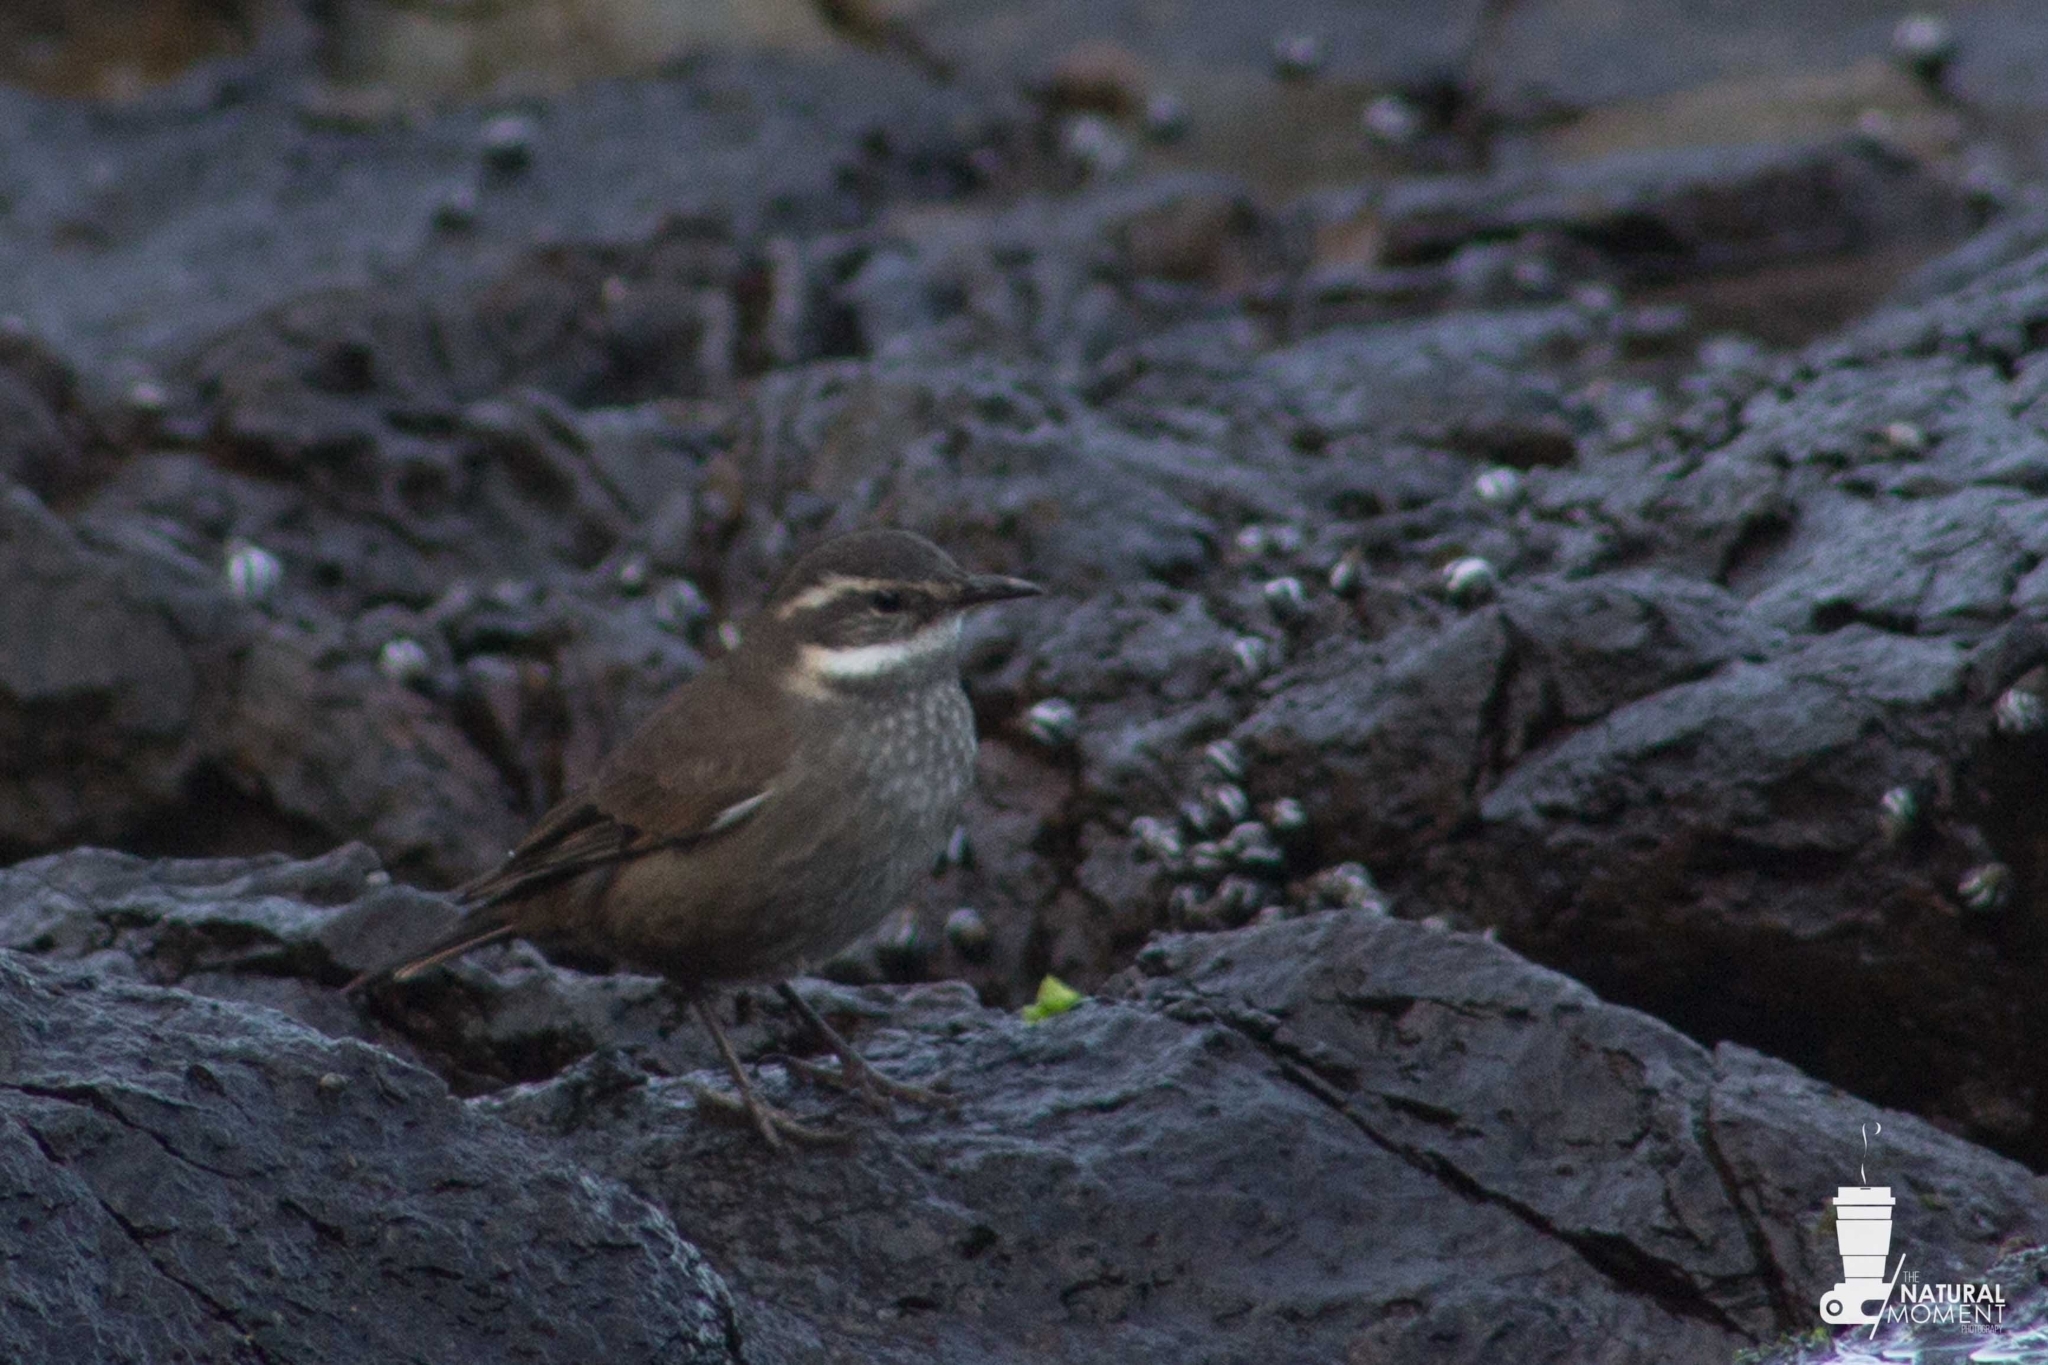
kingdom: Animalia
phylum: Chordata
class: Aves
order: Passeriformes
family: Furnariidae
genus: Cinclodes
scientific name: Cinclodes nigrofumosus
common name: Chilean seaside cinclodes
